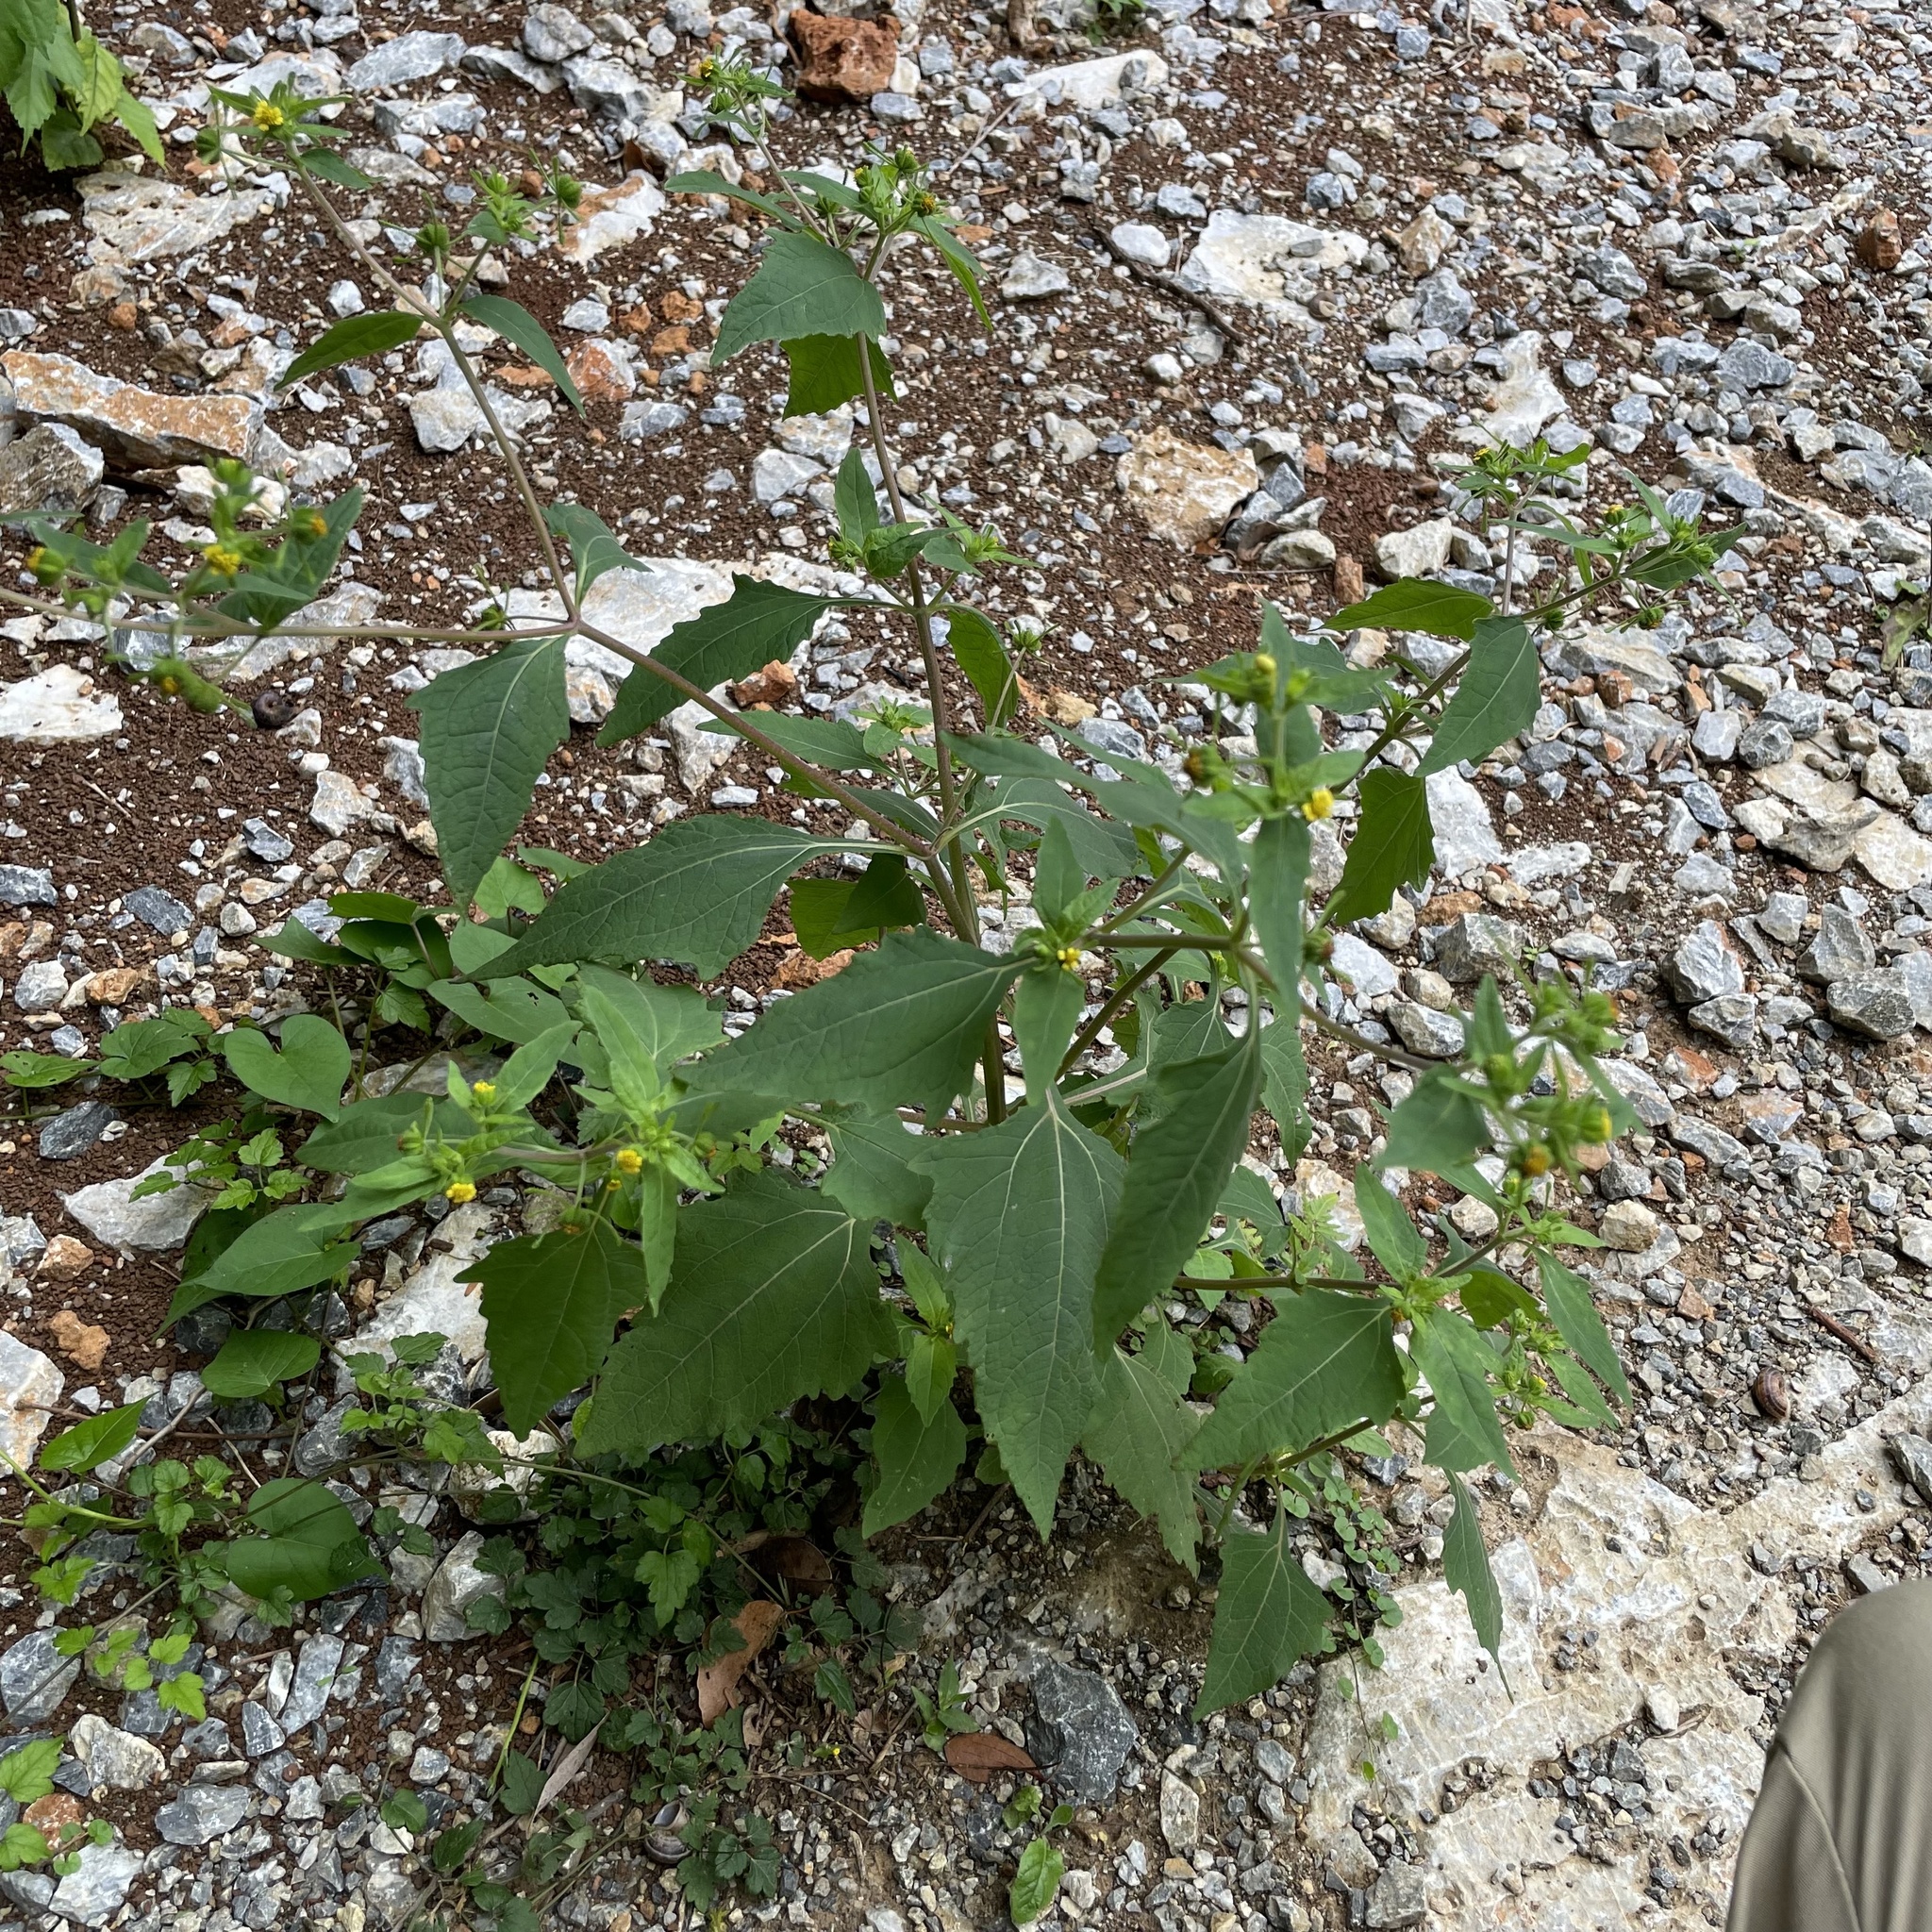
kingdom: Plantae
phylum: Tracheophyta
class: Magnoliopsida
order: Asterales
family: Asteraceae
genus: Sigesbeckia
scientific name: Sigesbeckia orientalis
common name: Eastern st paul's-wort
